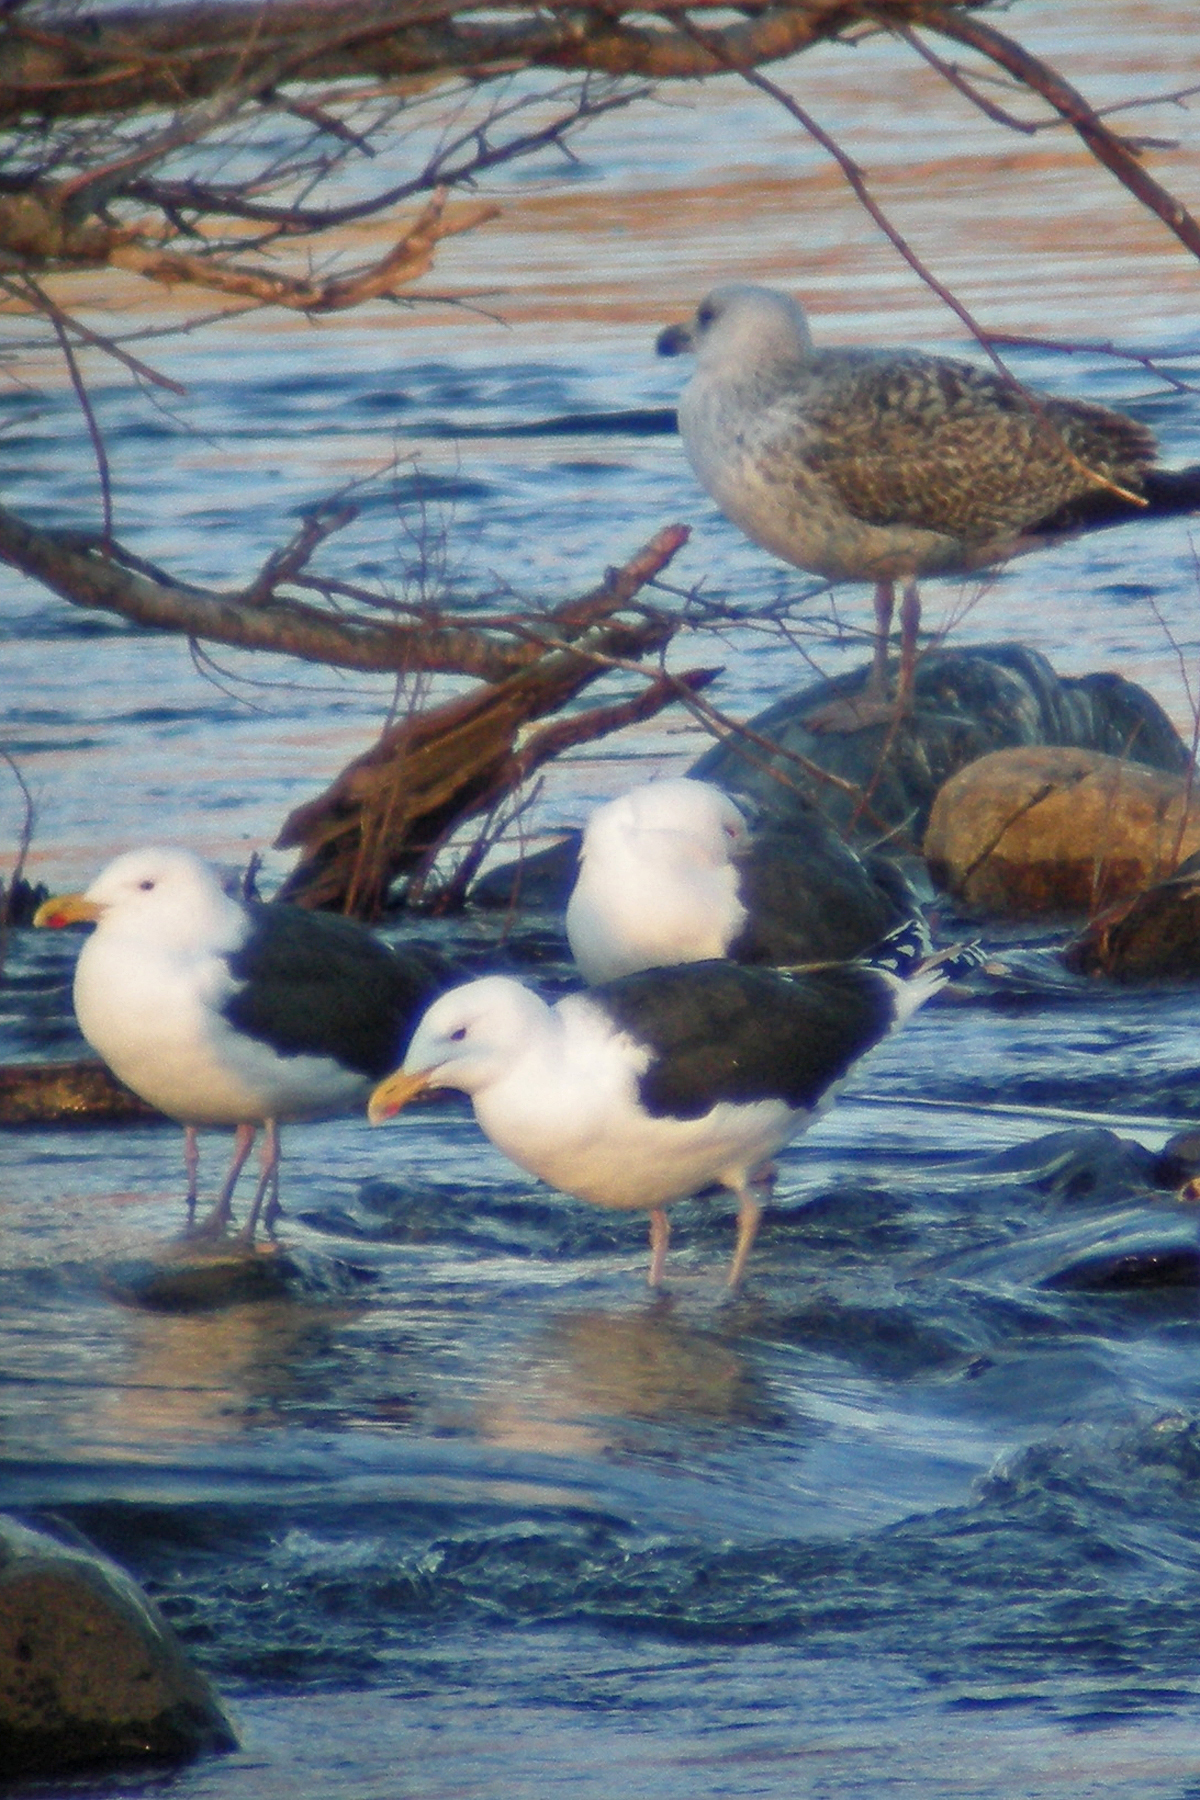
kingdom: Animalia
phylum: Chordata
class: Aves
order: Charadriiformes
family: Laridae
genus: Larus
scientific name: Larus marinus
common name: Great black-backed gull
